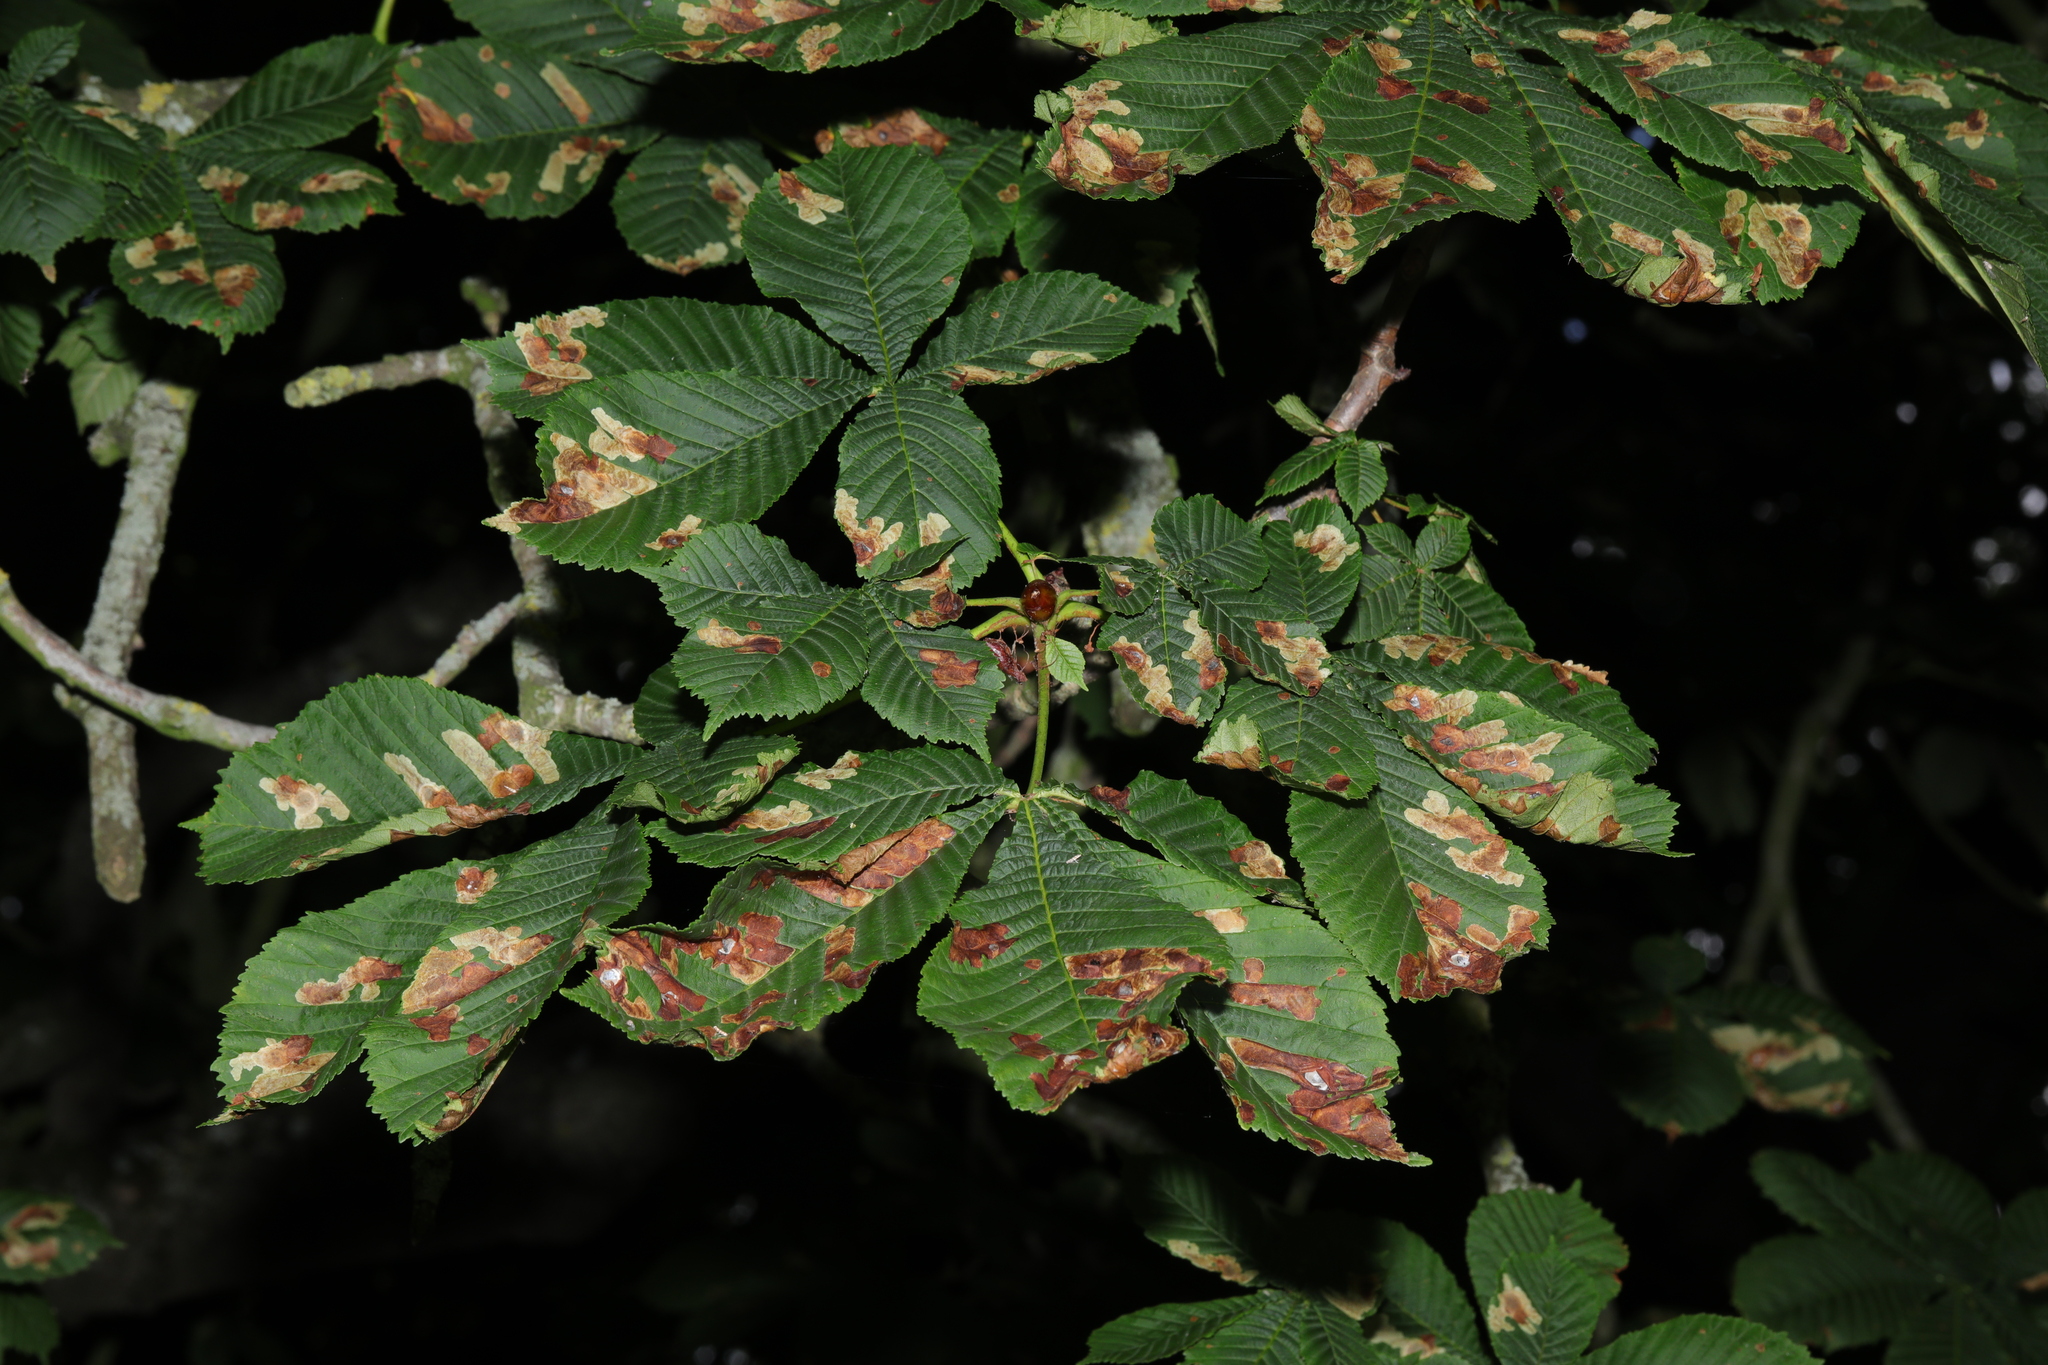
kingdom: Plantae
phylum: Tracheophyta
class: Magnoliopsida
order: Sapindales
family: Sapindaceae
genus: Aesculus
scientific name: Aesculus hippocastanum
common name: Horse-chestnut
